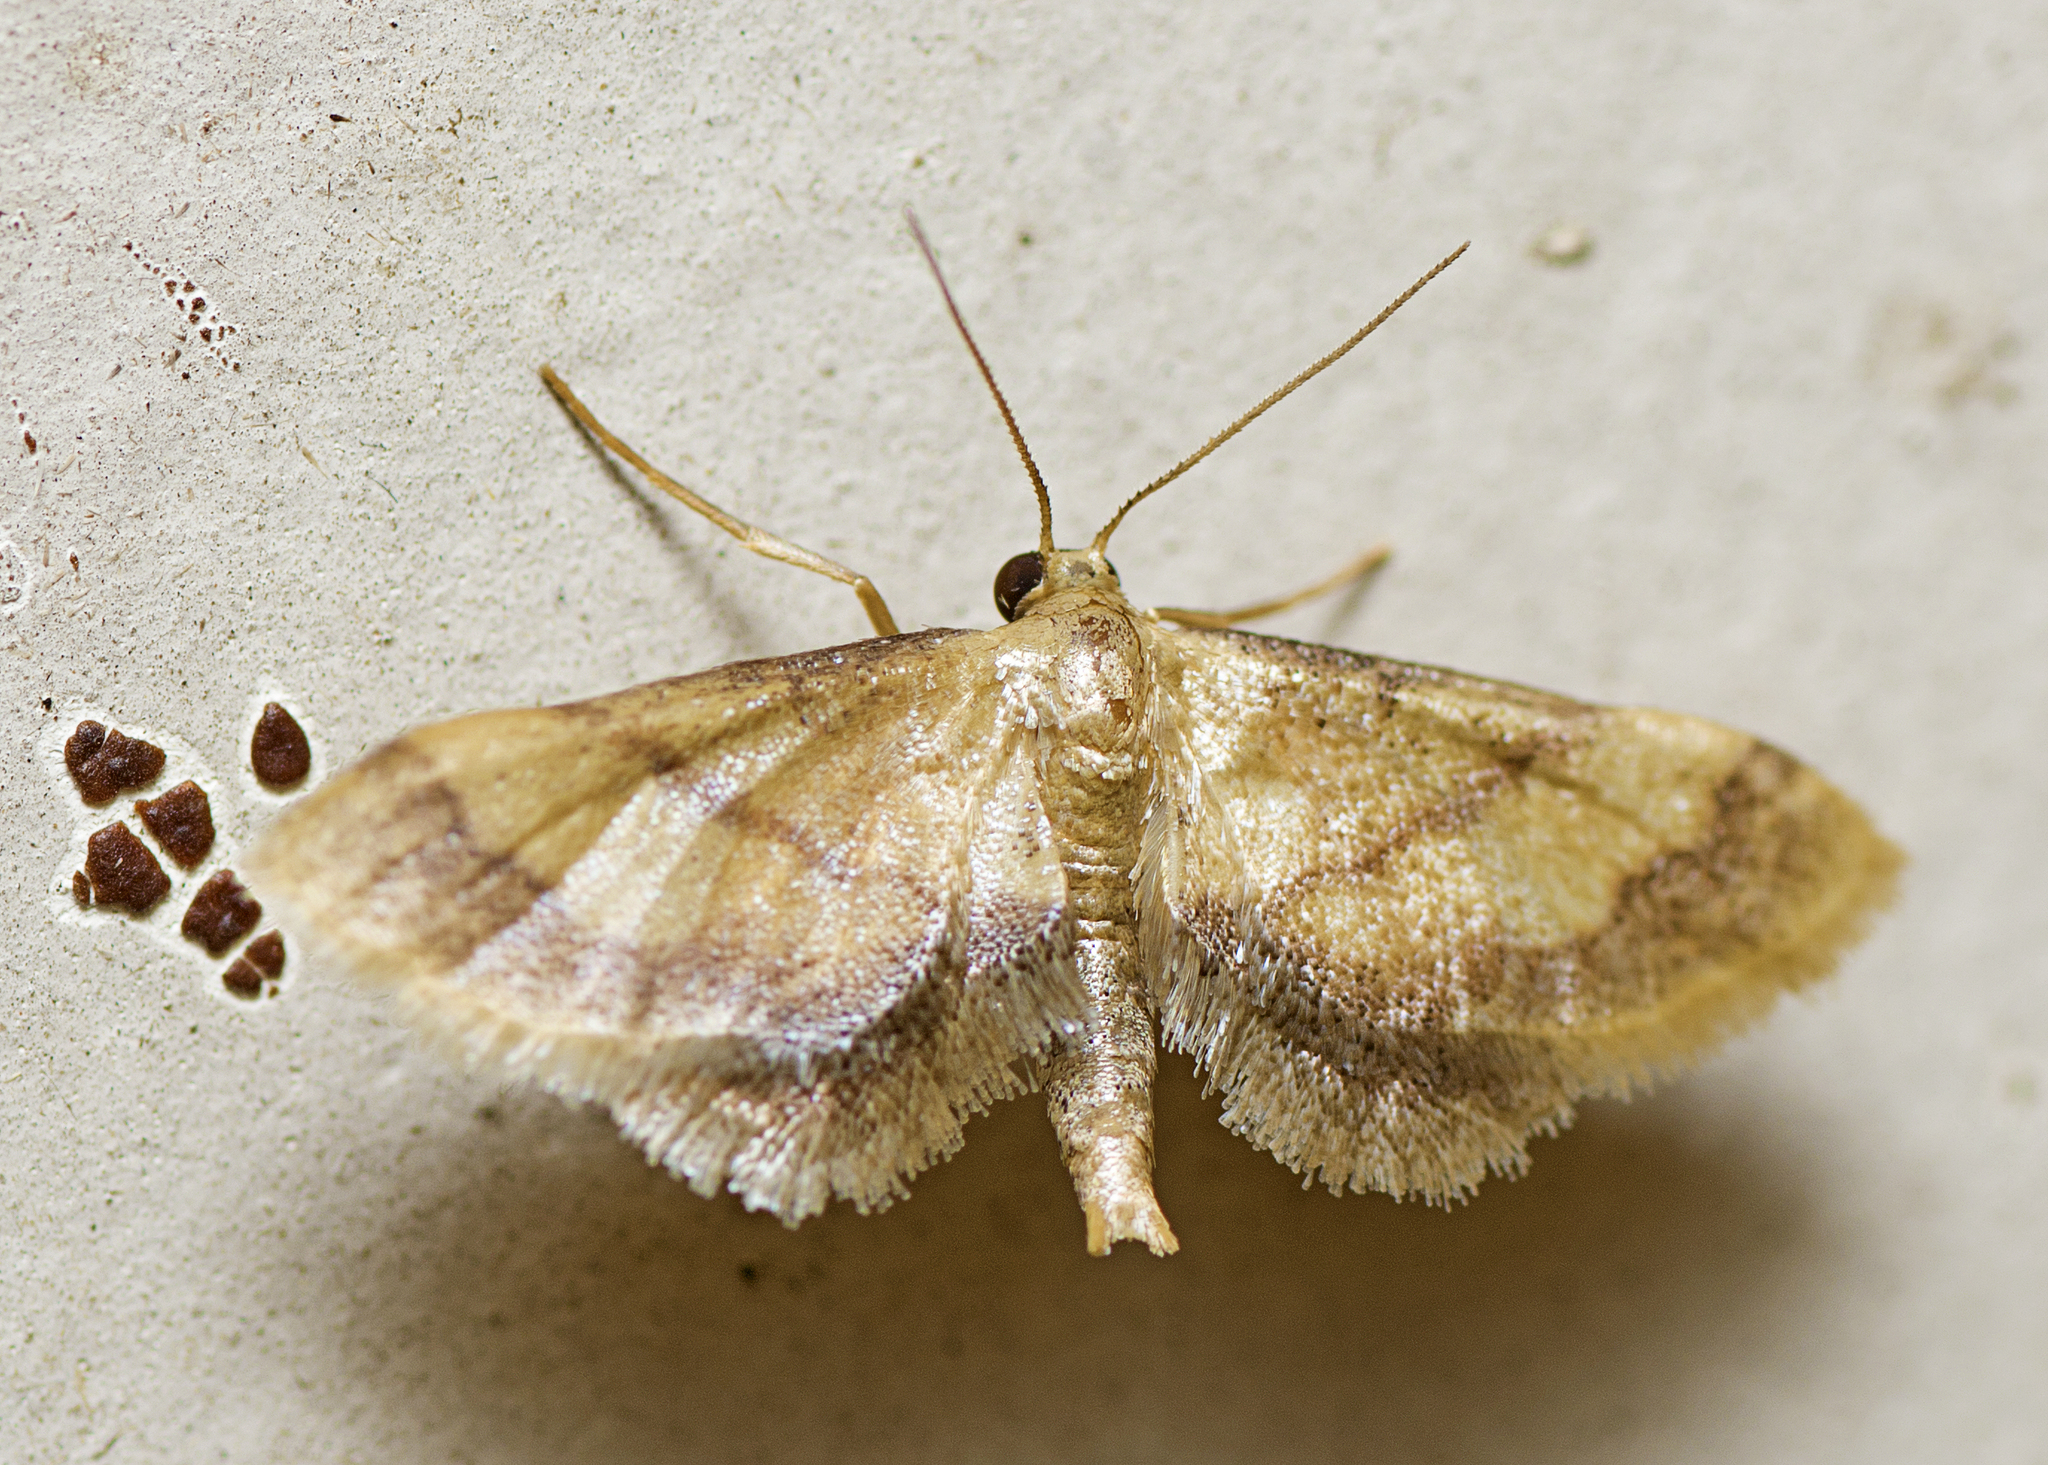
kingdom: Animalia
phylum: Arthropoda
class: Insecta
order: Lepidoptera
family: Geometridae
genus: Idaea
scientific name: Idaea trypheropa
